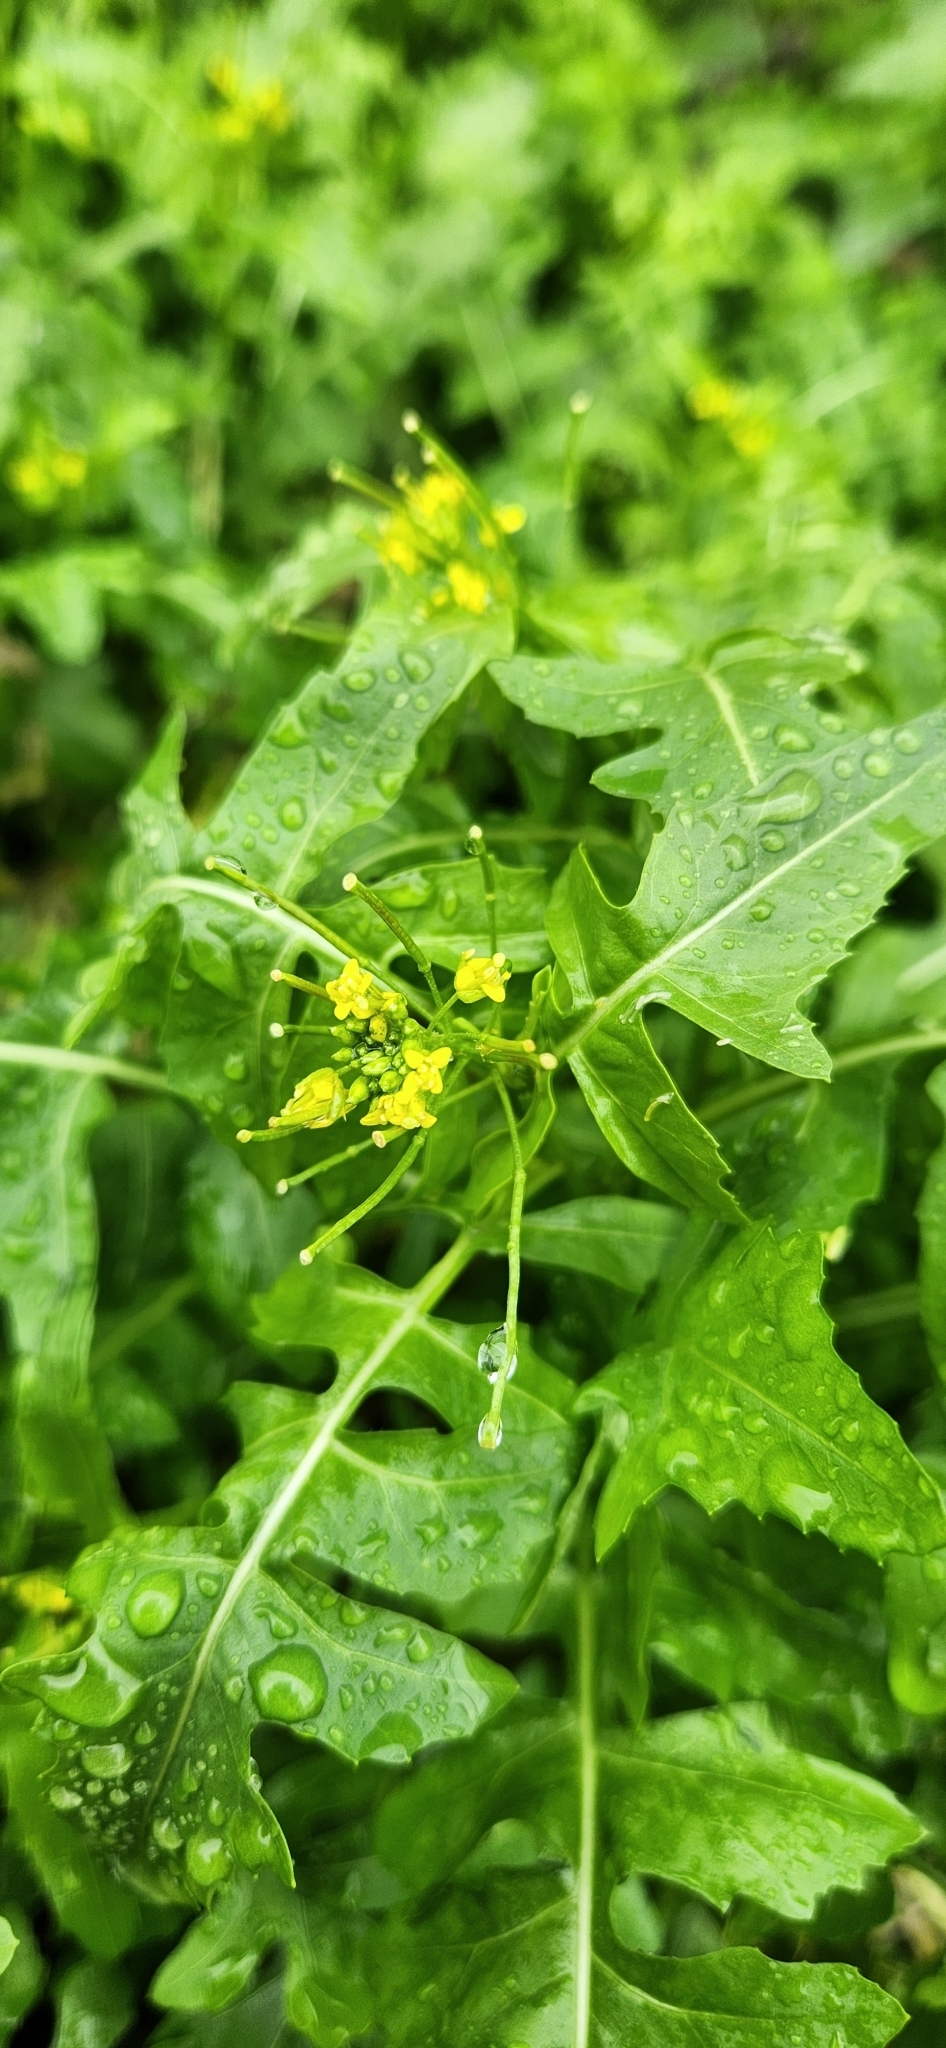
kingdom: Plantae
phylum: Tracheophyta
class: Magnoliopsida
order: Brassicales
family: Brassicaceae
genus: Sisymbrium
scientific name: Sisymbrium irio
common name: London rocket
